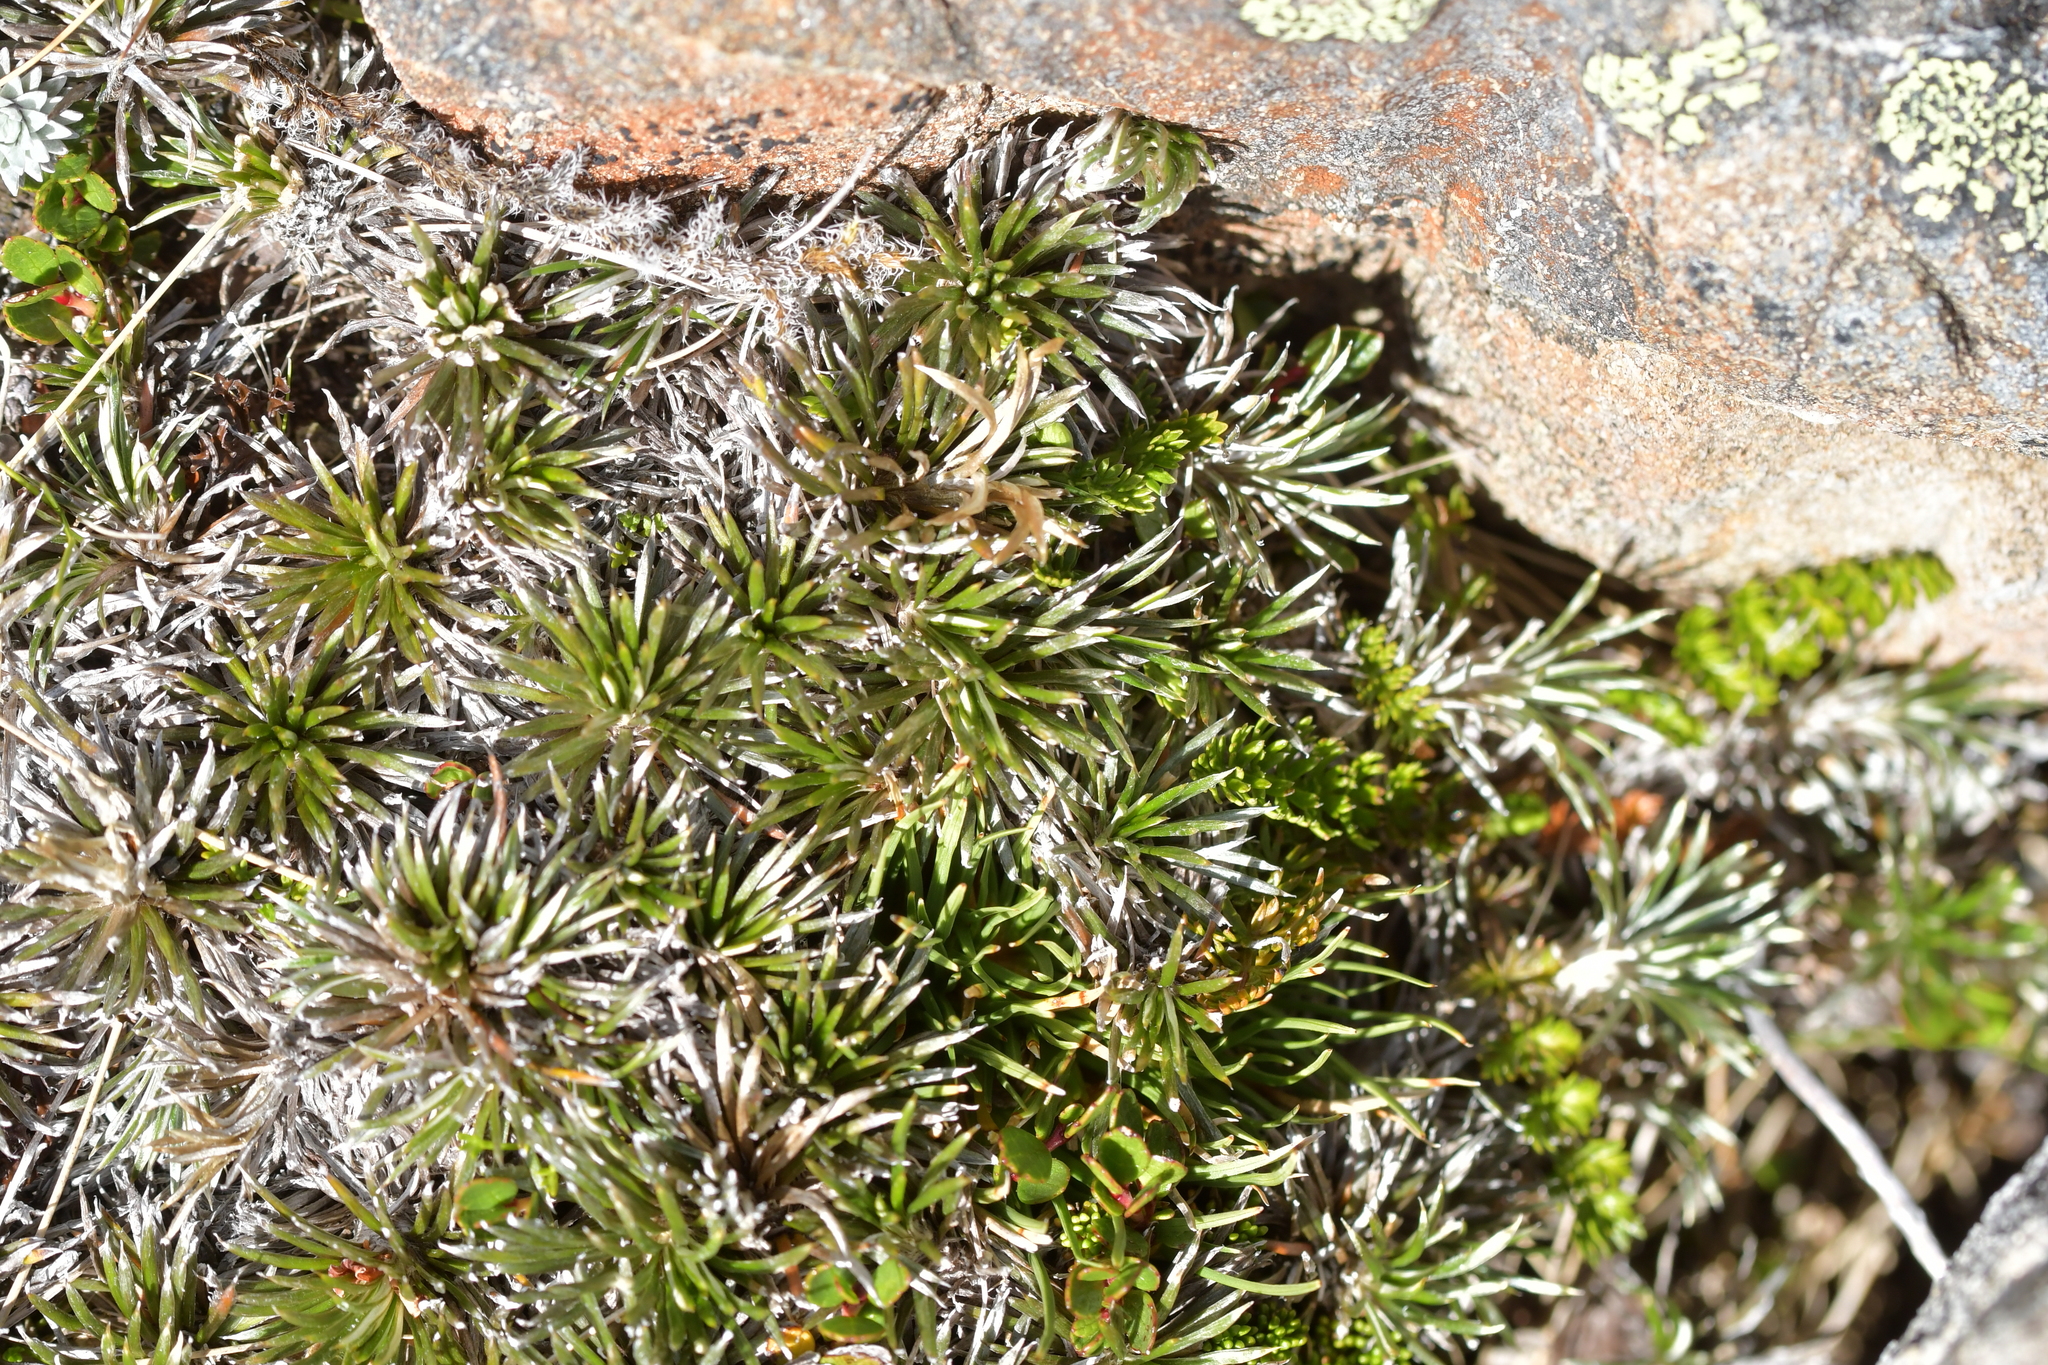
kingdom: Plantae
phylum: Tracheophyta
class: Magnoliopsida
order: Asterales
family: Asteraceae
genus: Celmisia
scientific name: Celmisia laricifolia
